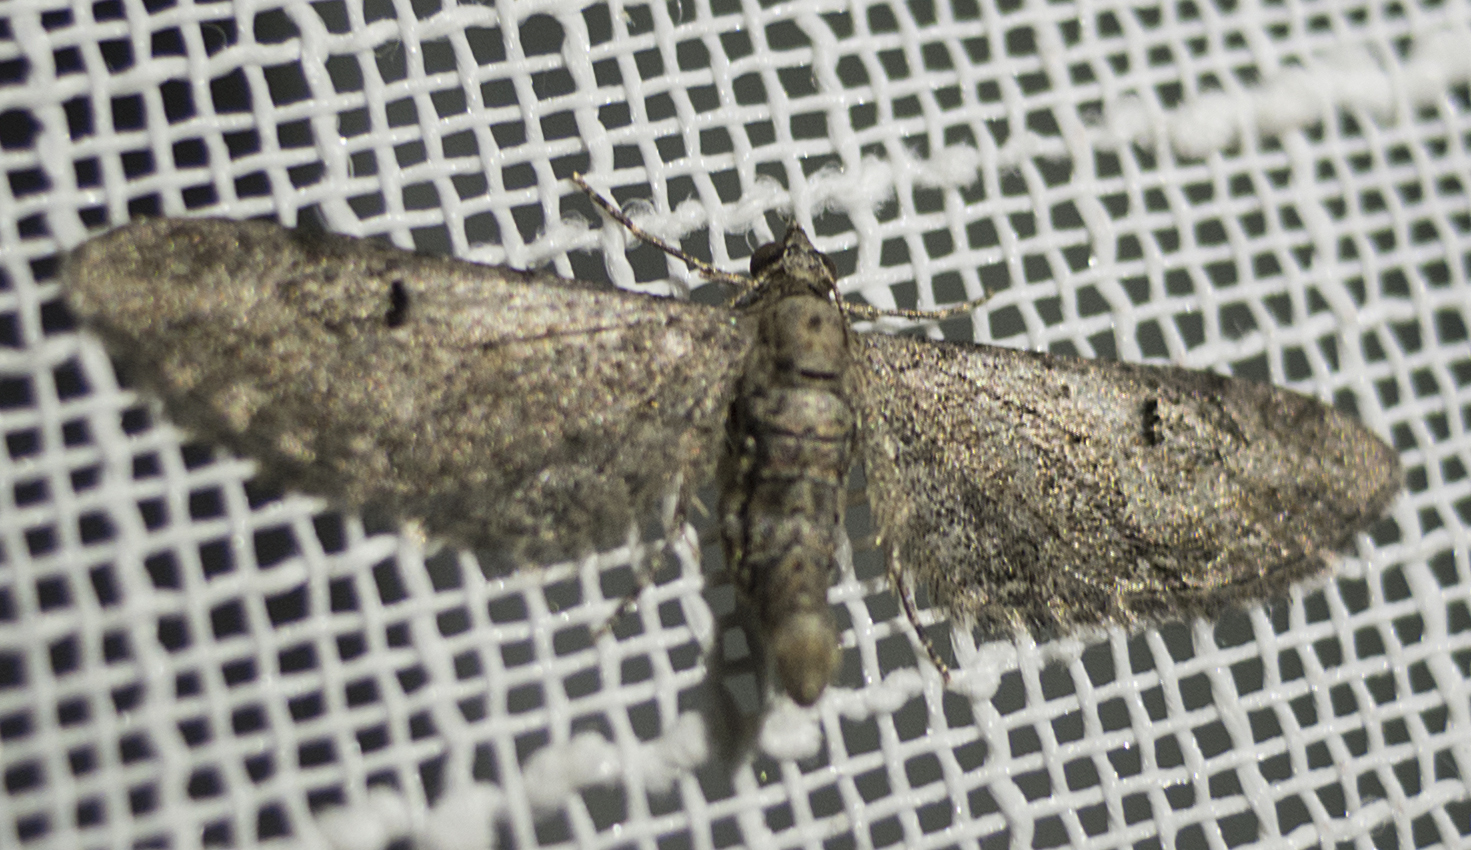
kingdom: Animalia
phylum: Arthropoda
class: Insecta
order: Lepidoptera
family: Geometridae
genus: Eupithecia
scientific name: Eupithecia innotata
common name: Angle-barred pug
